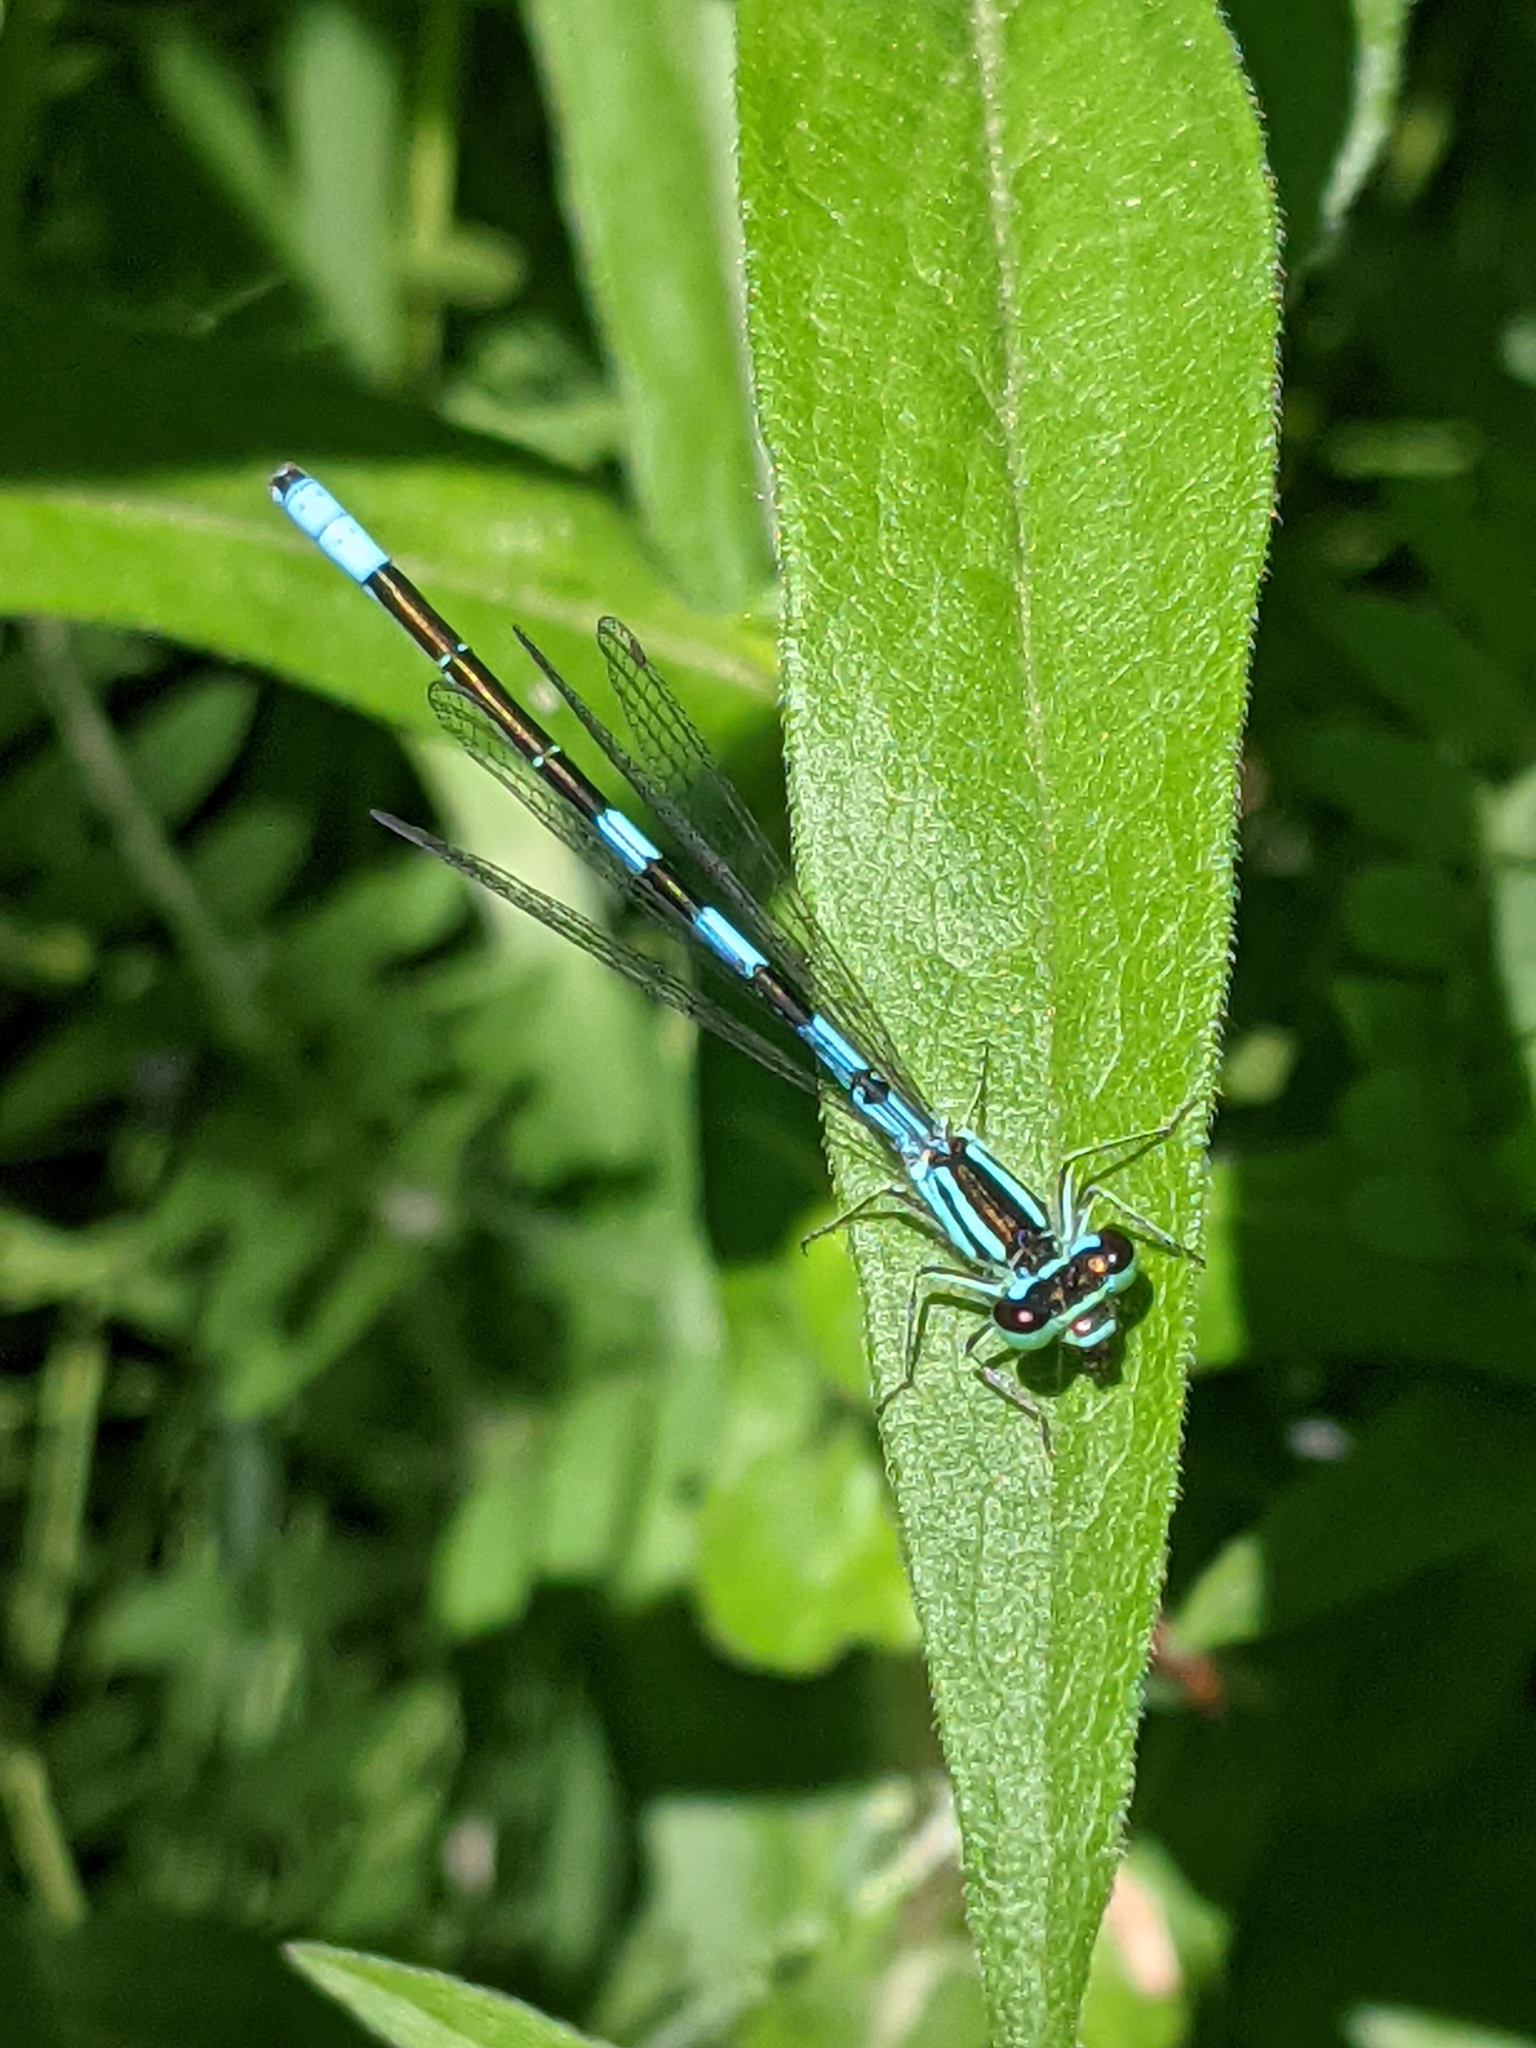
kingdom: Animalia
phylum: Arthropoda
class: Insecta
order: Odonata
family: Coenagrionidae
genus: Coenagrion
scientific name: Coenagrion resolutum
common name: Taiga bluet
